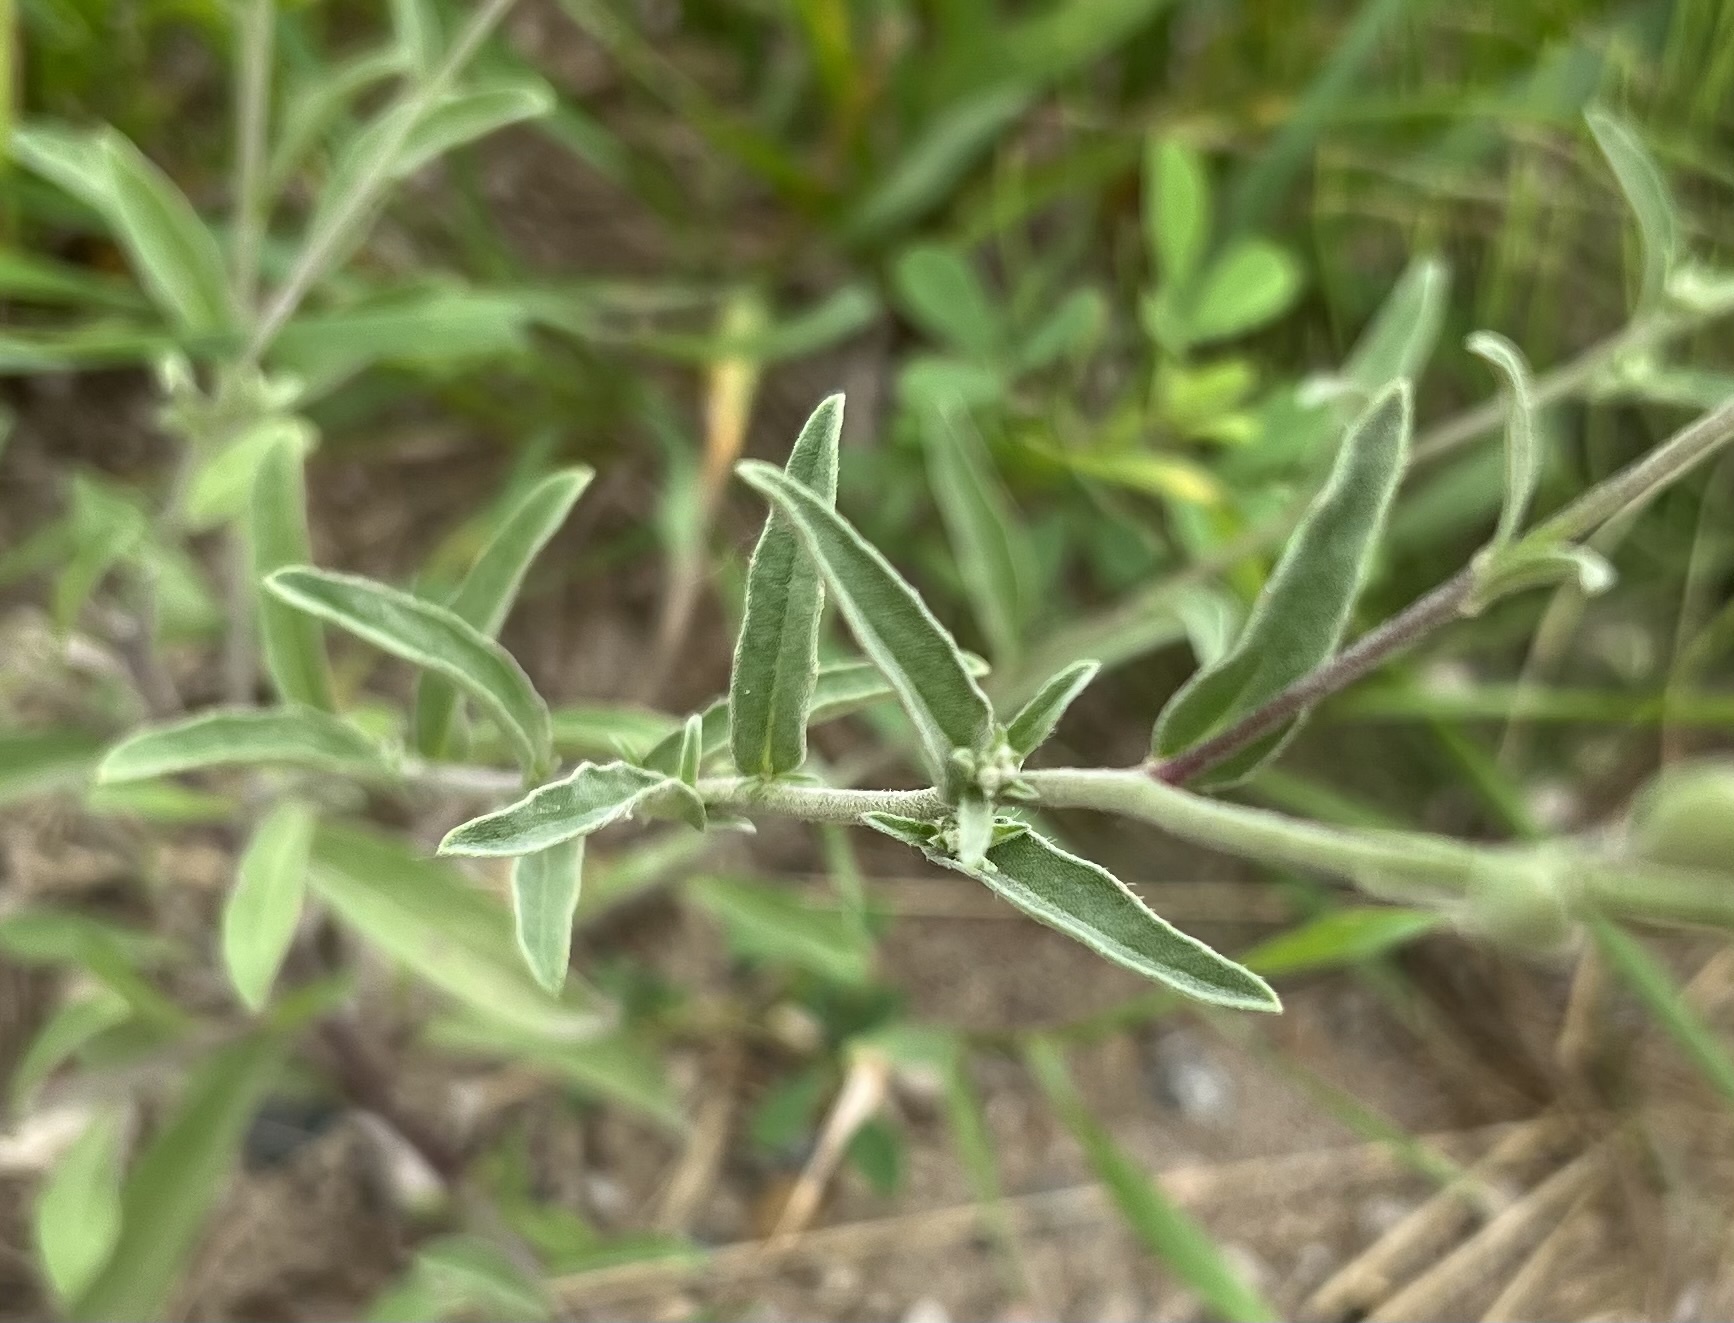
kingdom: Plantae
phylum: Tracheophyta
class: Magnoliopsida
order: Brassicales
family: Brassicaceae
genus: Berteroa
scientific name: Berteroa incana
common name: Hoary alison
